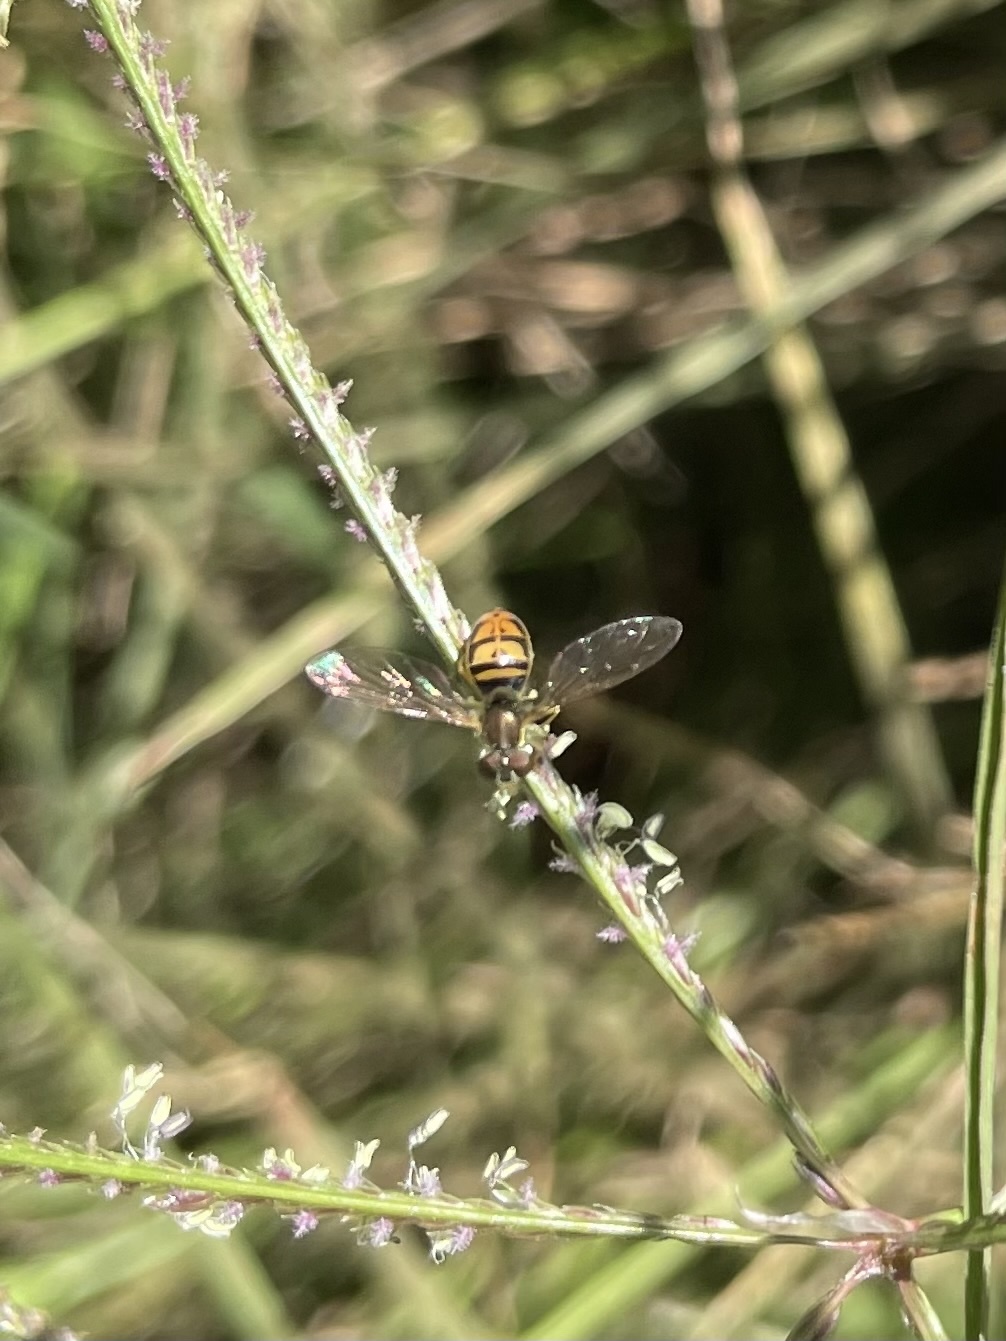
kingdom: Animalia
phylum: Arthropoda
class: Insecta
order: Diptera
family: Syrphidae
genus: Toxomerus
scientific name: Toxomerus marginatus
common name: Syrphid fly
